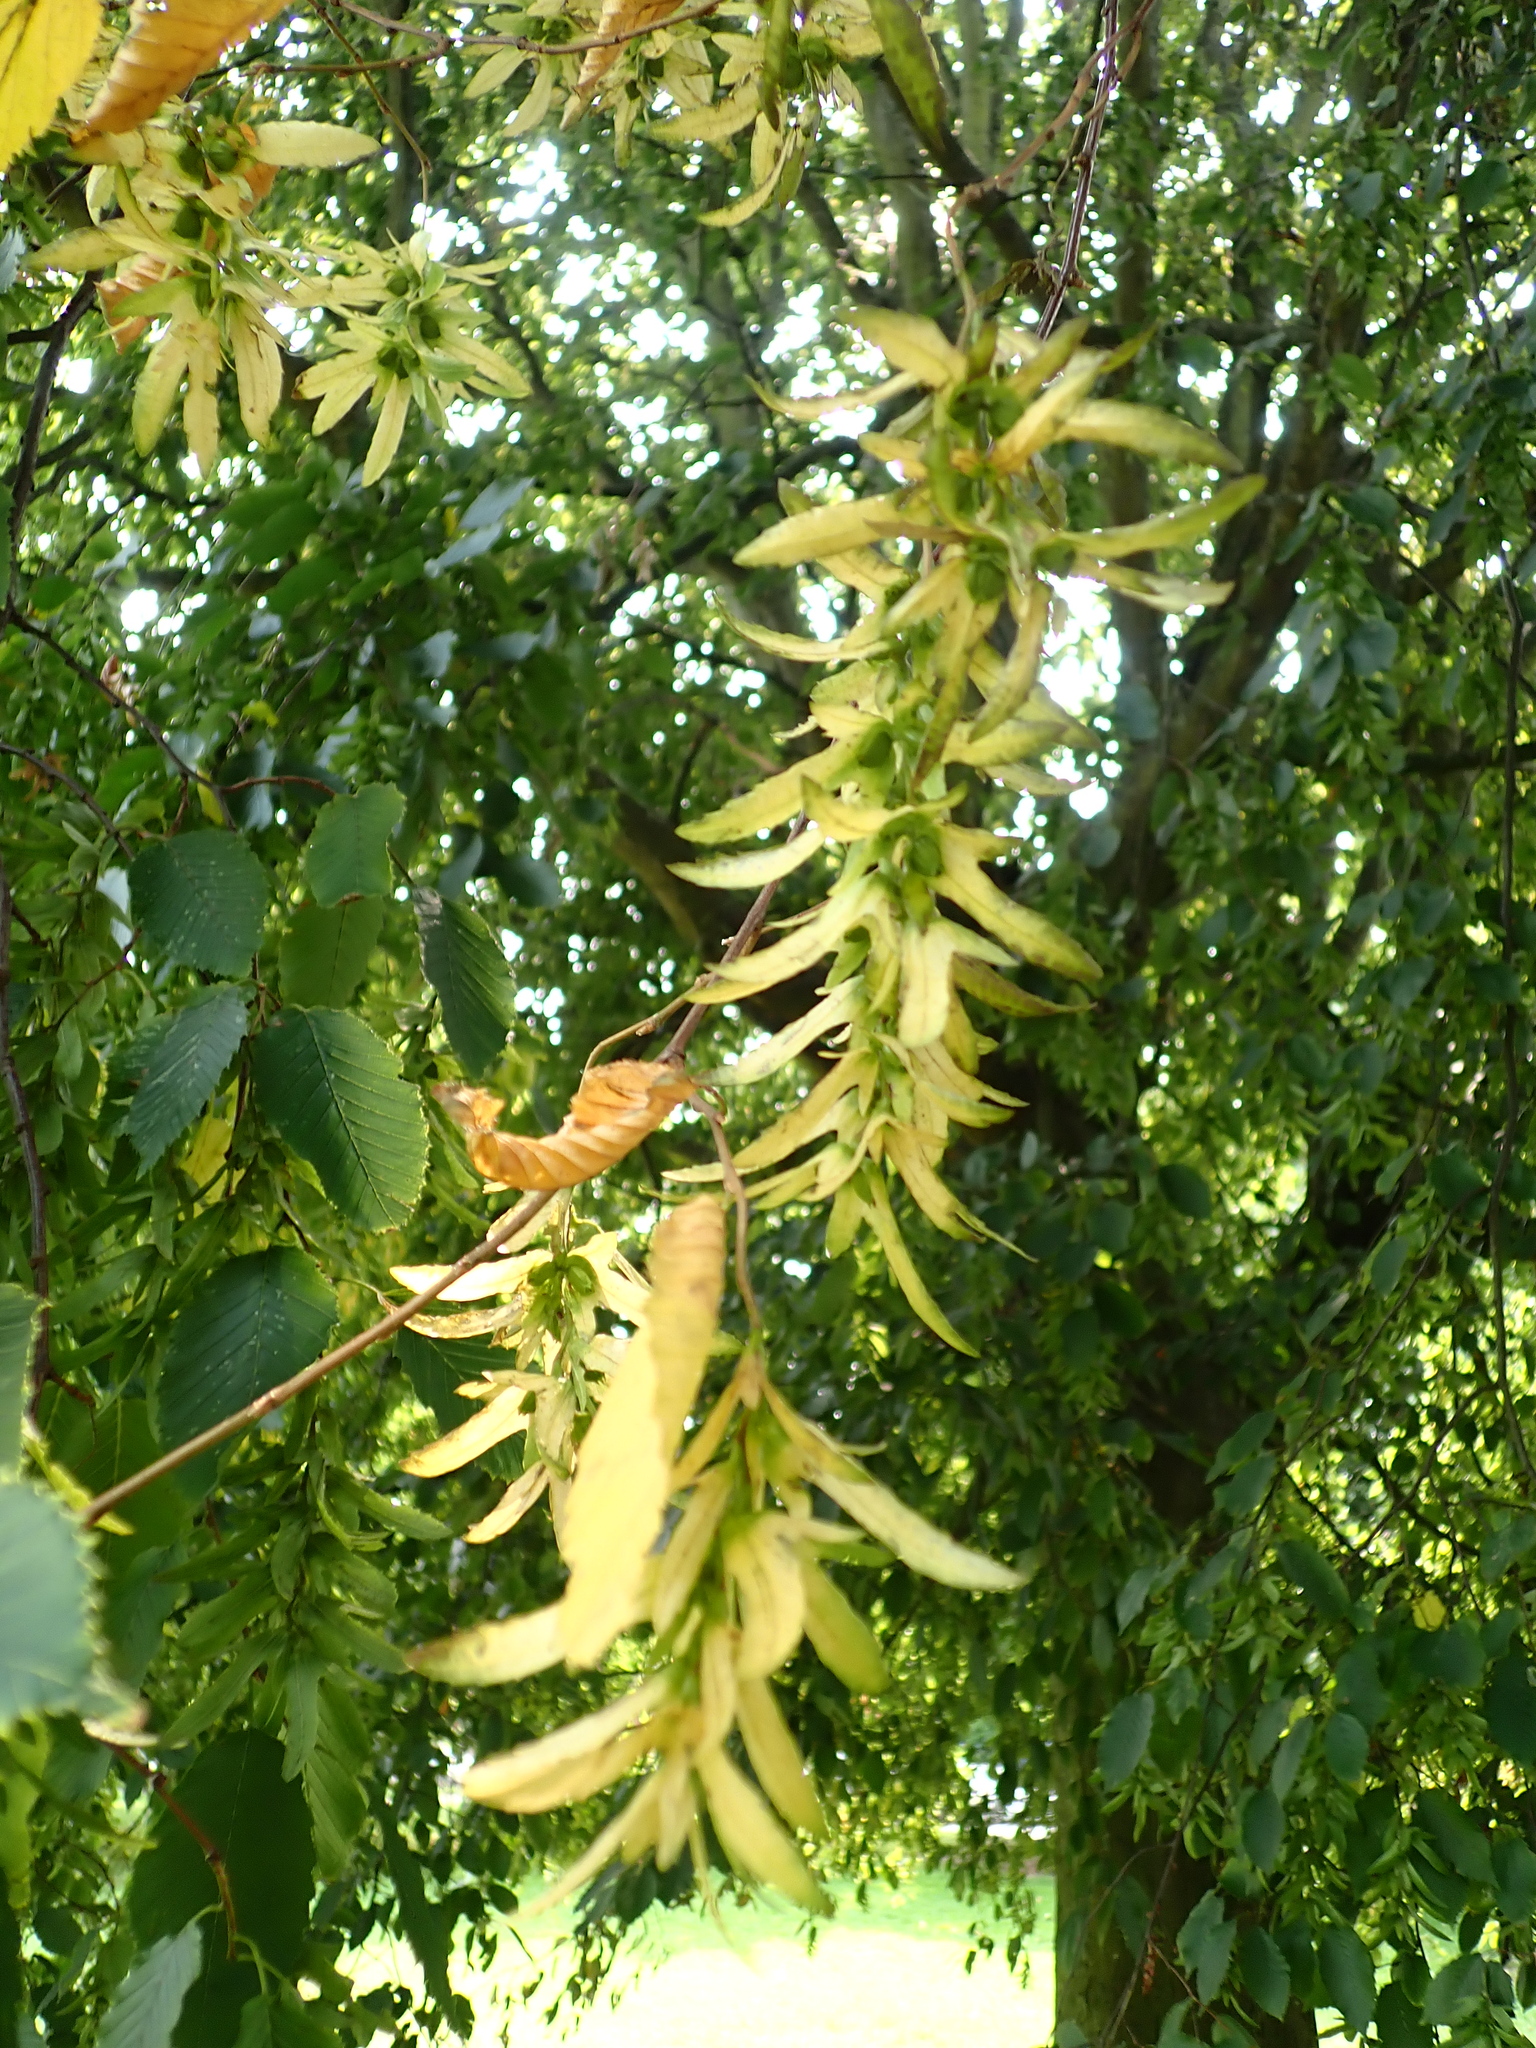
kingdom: Plantae
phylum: Tracheophyta
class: Magnoliopsida
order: Fagales
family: Betulaceae
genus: Carpinus
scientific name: Carpinus betulus
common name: Hornbeam
